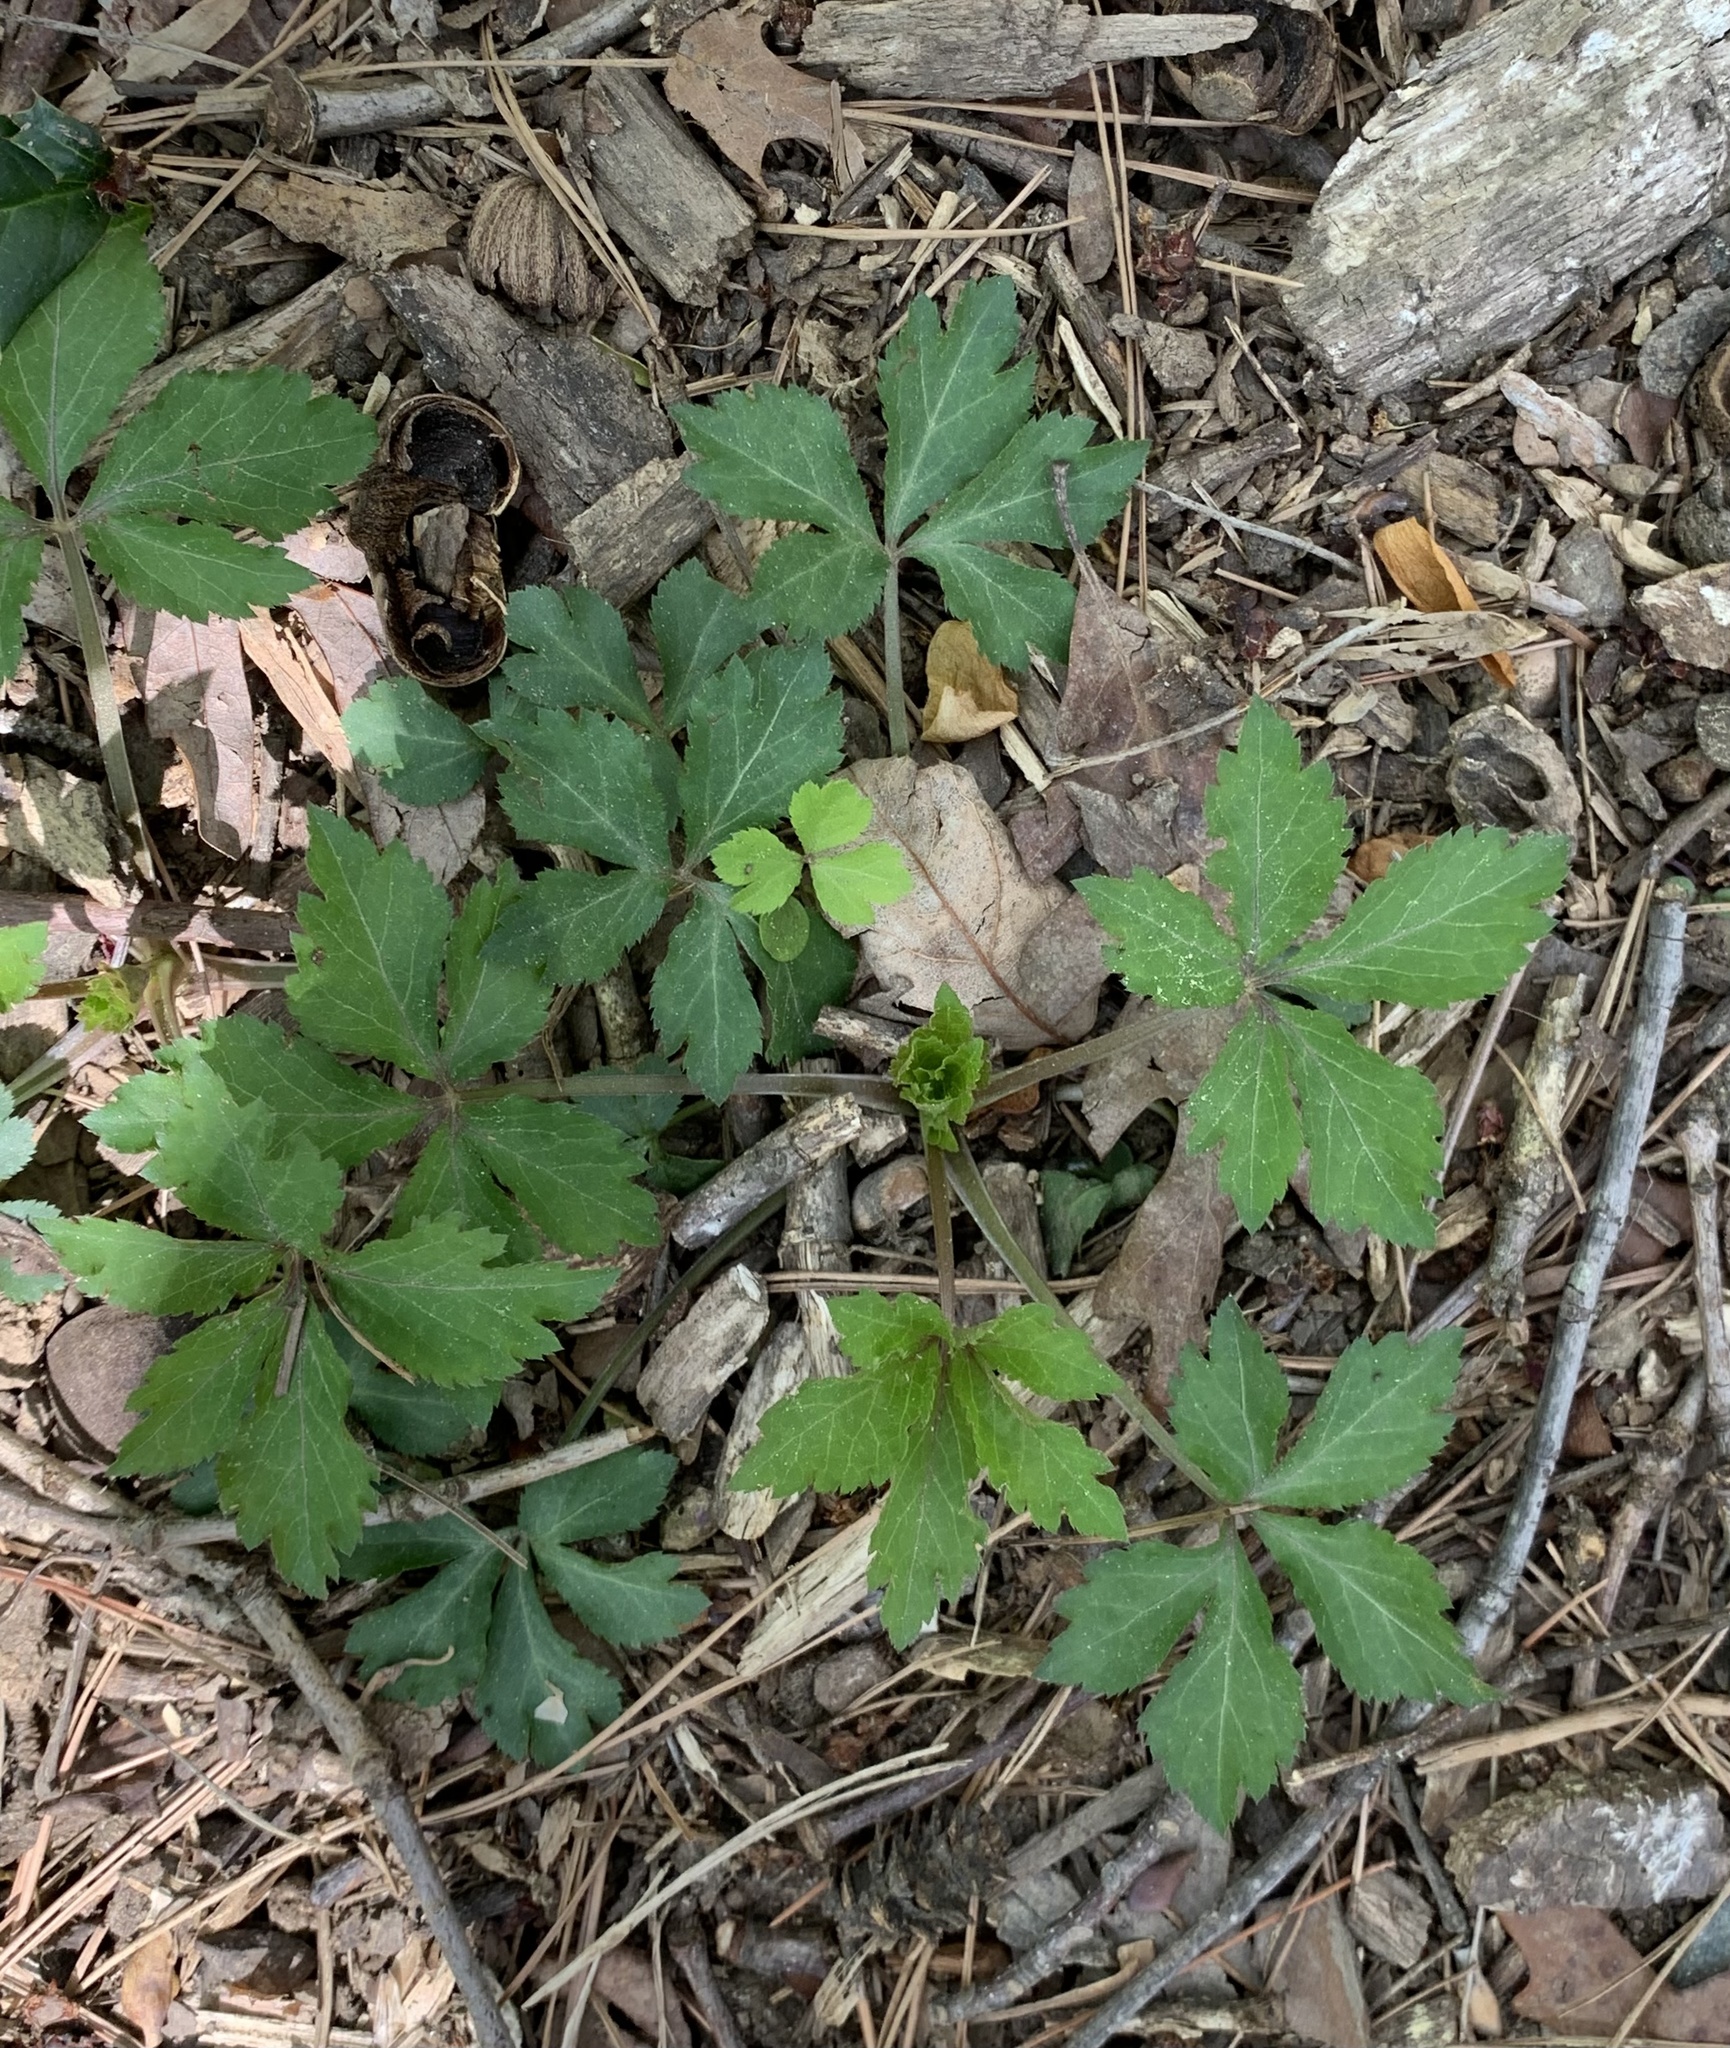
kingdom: Plantae
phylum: Tracheophyta
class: Magnoliopsida
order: Apiales
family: Apiaceae
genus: Sanicula
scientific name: Sanicula canadensis
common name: Canada sanicle
